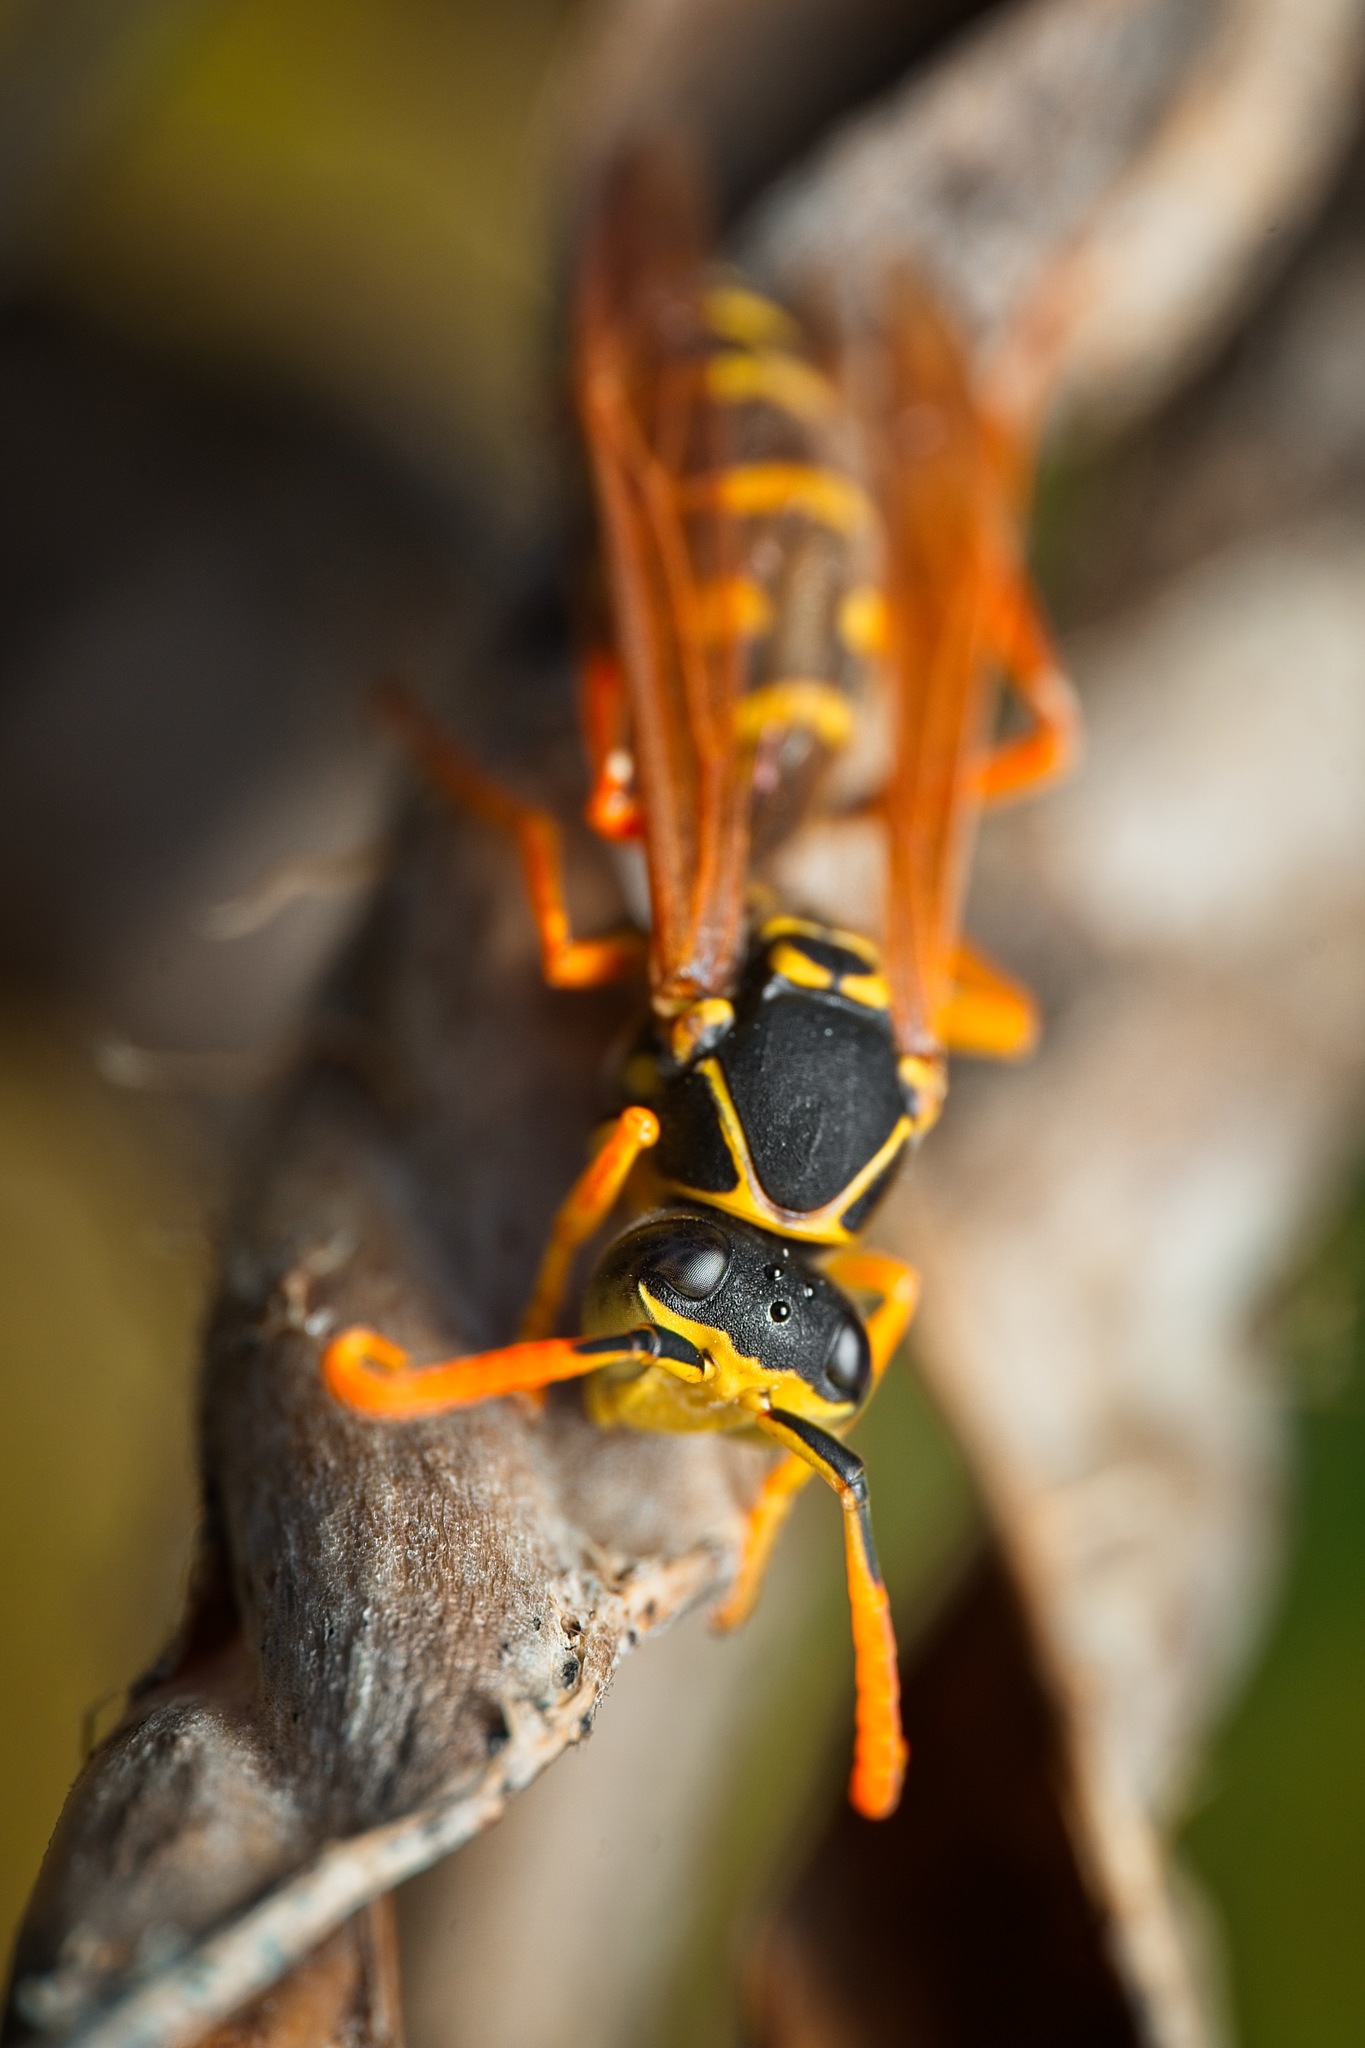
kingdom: Animalia
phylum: Arthropoda
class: Insecta
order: Hymenoptera
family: Eumenidae
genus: Polistes
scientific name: Polistes chinensis
